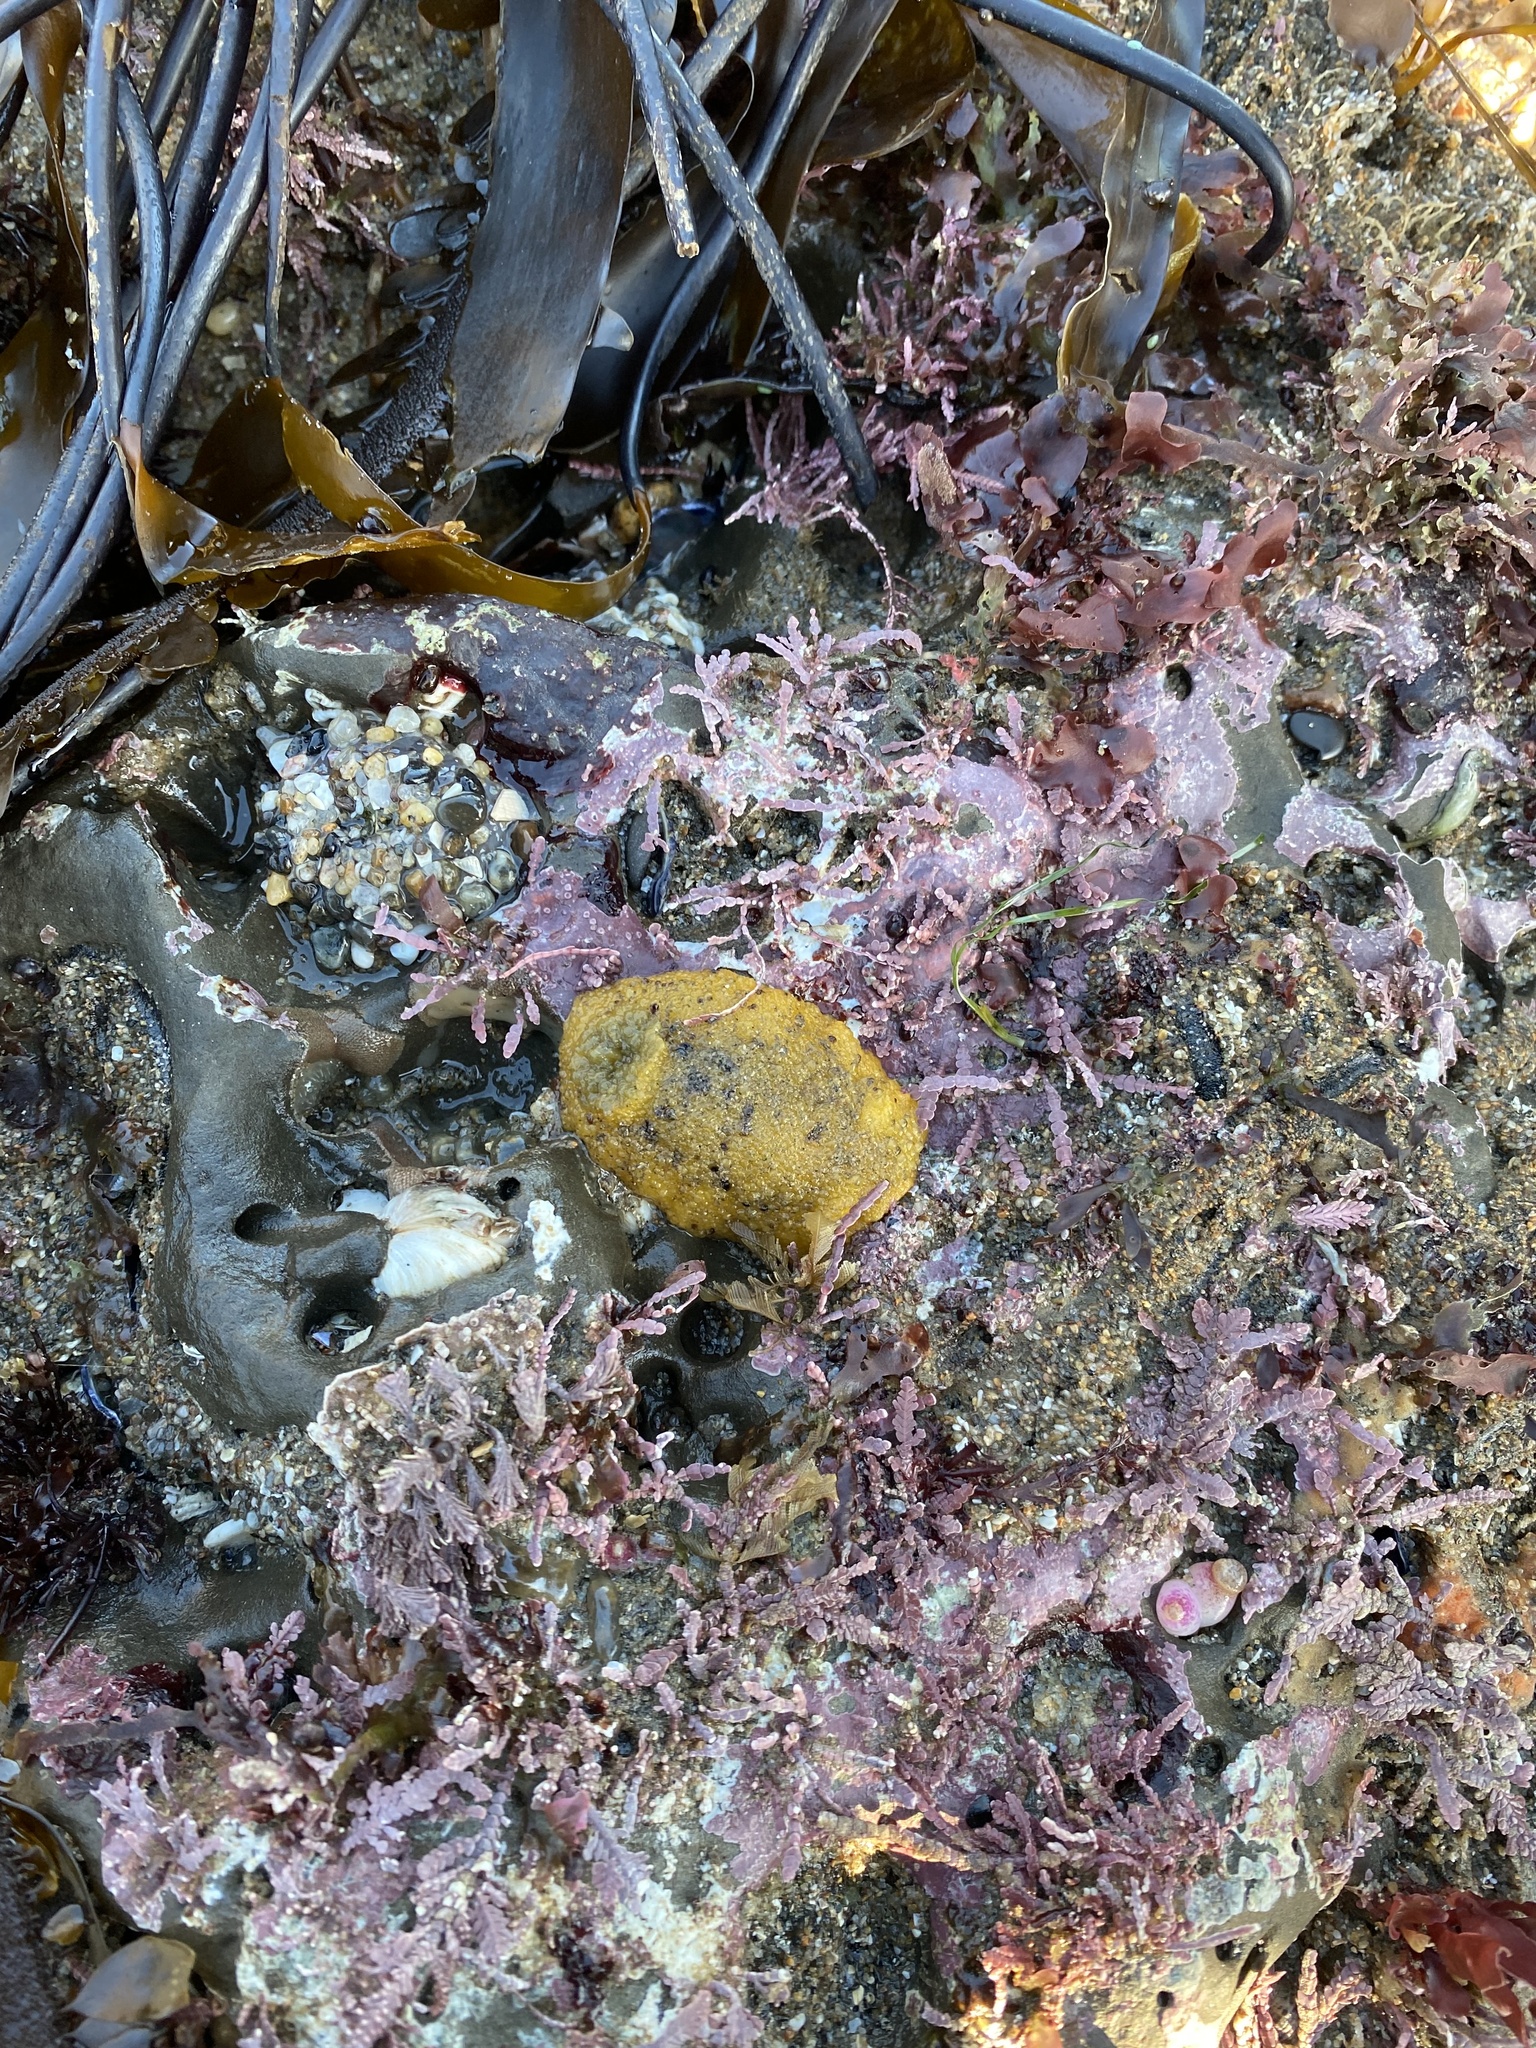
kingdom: Animalia
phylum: Mollusca
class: Gastropoda
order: Nudibranchia
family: Dorididae
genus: Doris
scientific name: Doris montereyensis
